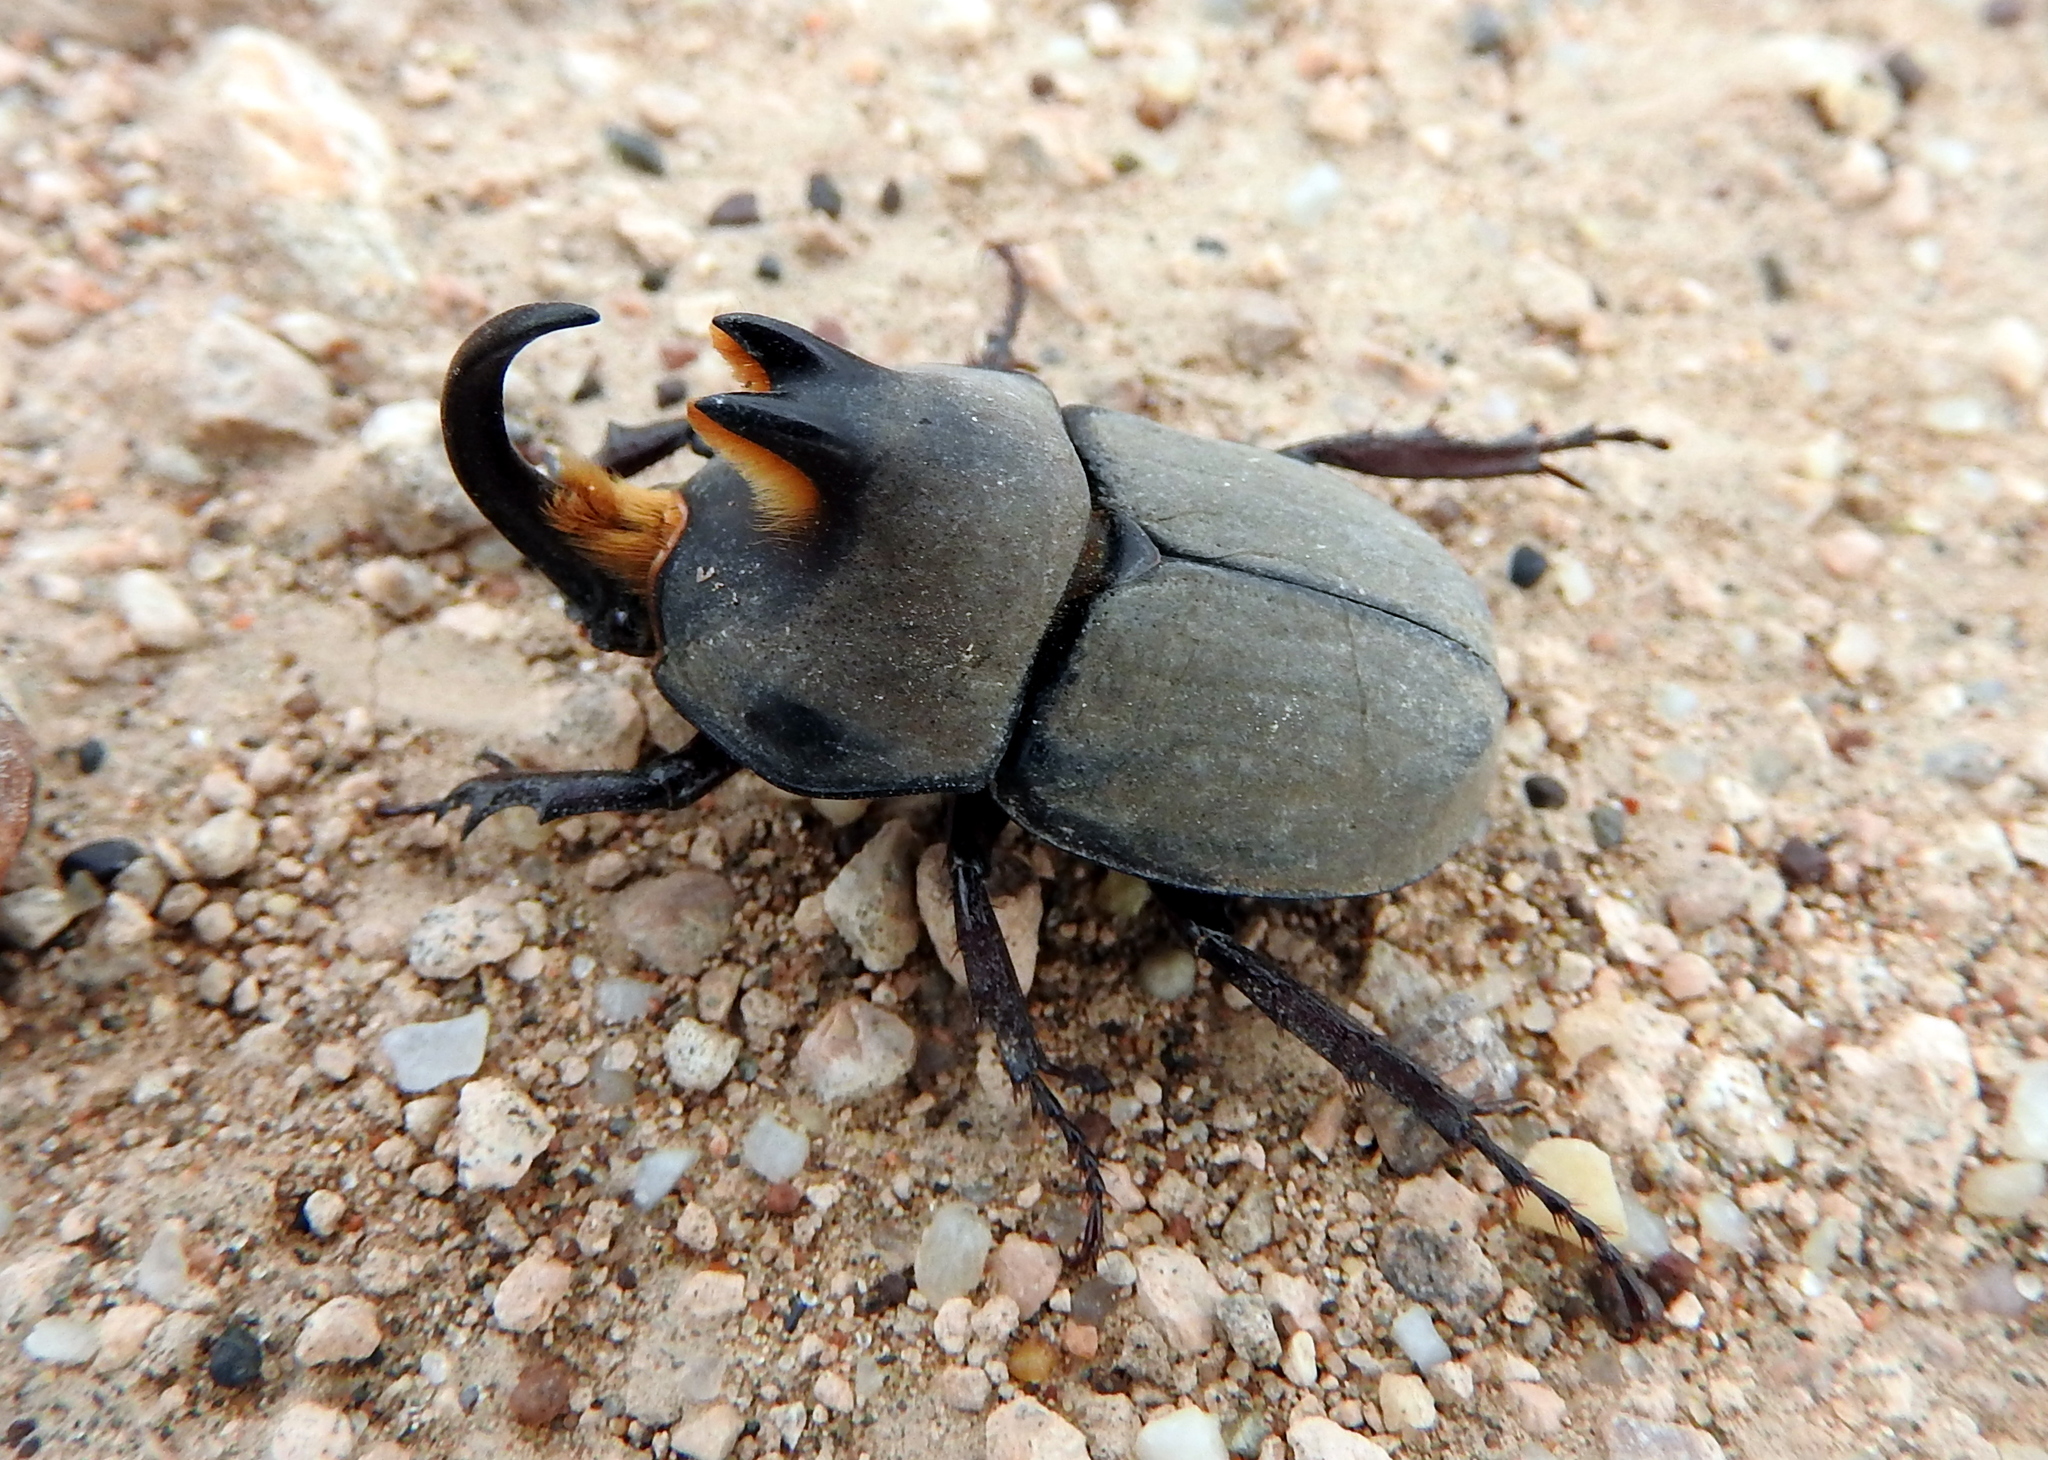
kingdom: Animalia
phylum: Arthropoda
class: Insecta
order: Coleoptera
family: Scarabaeidae
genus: Diloboderus
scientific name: Diloboderus abderus
